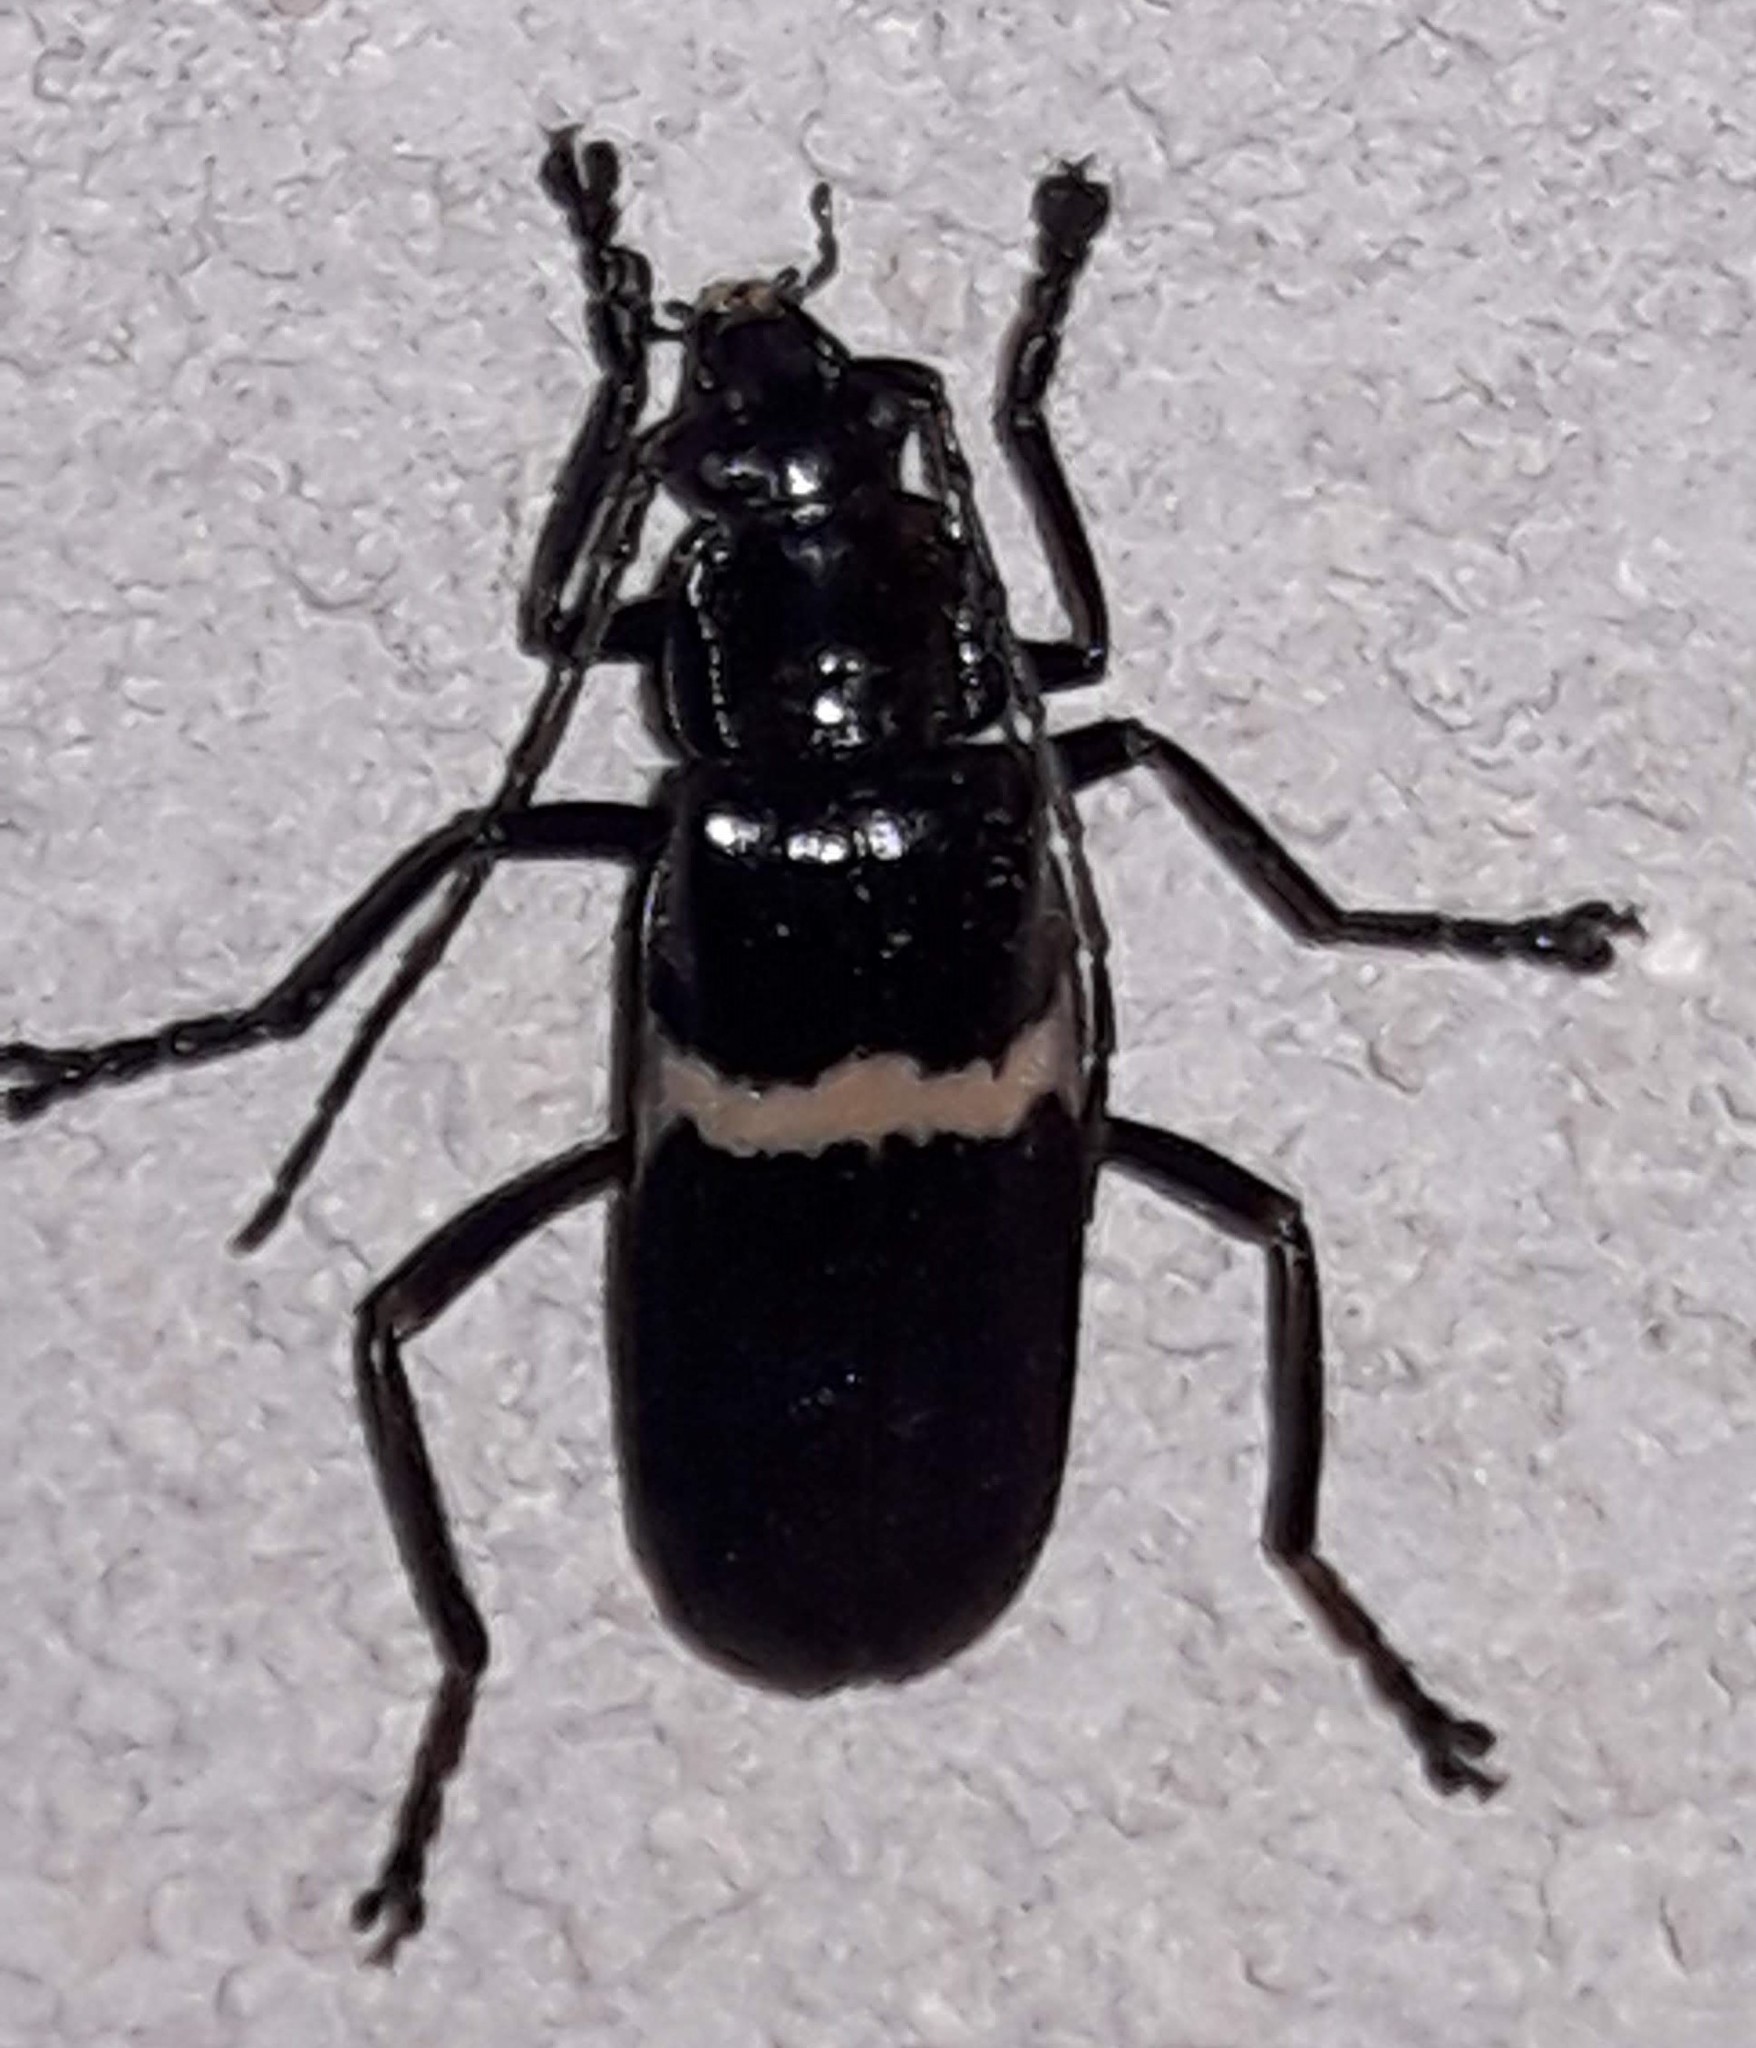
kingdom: Animalia
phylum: Arthropoda
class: Insecta
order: Coleoptera
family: Cantharidae
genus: Chauliognathus
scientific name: Chauliognathus
